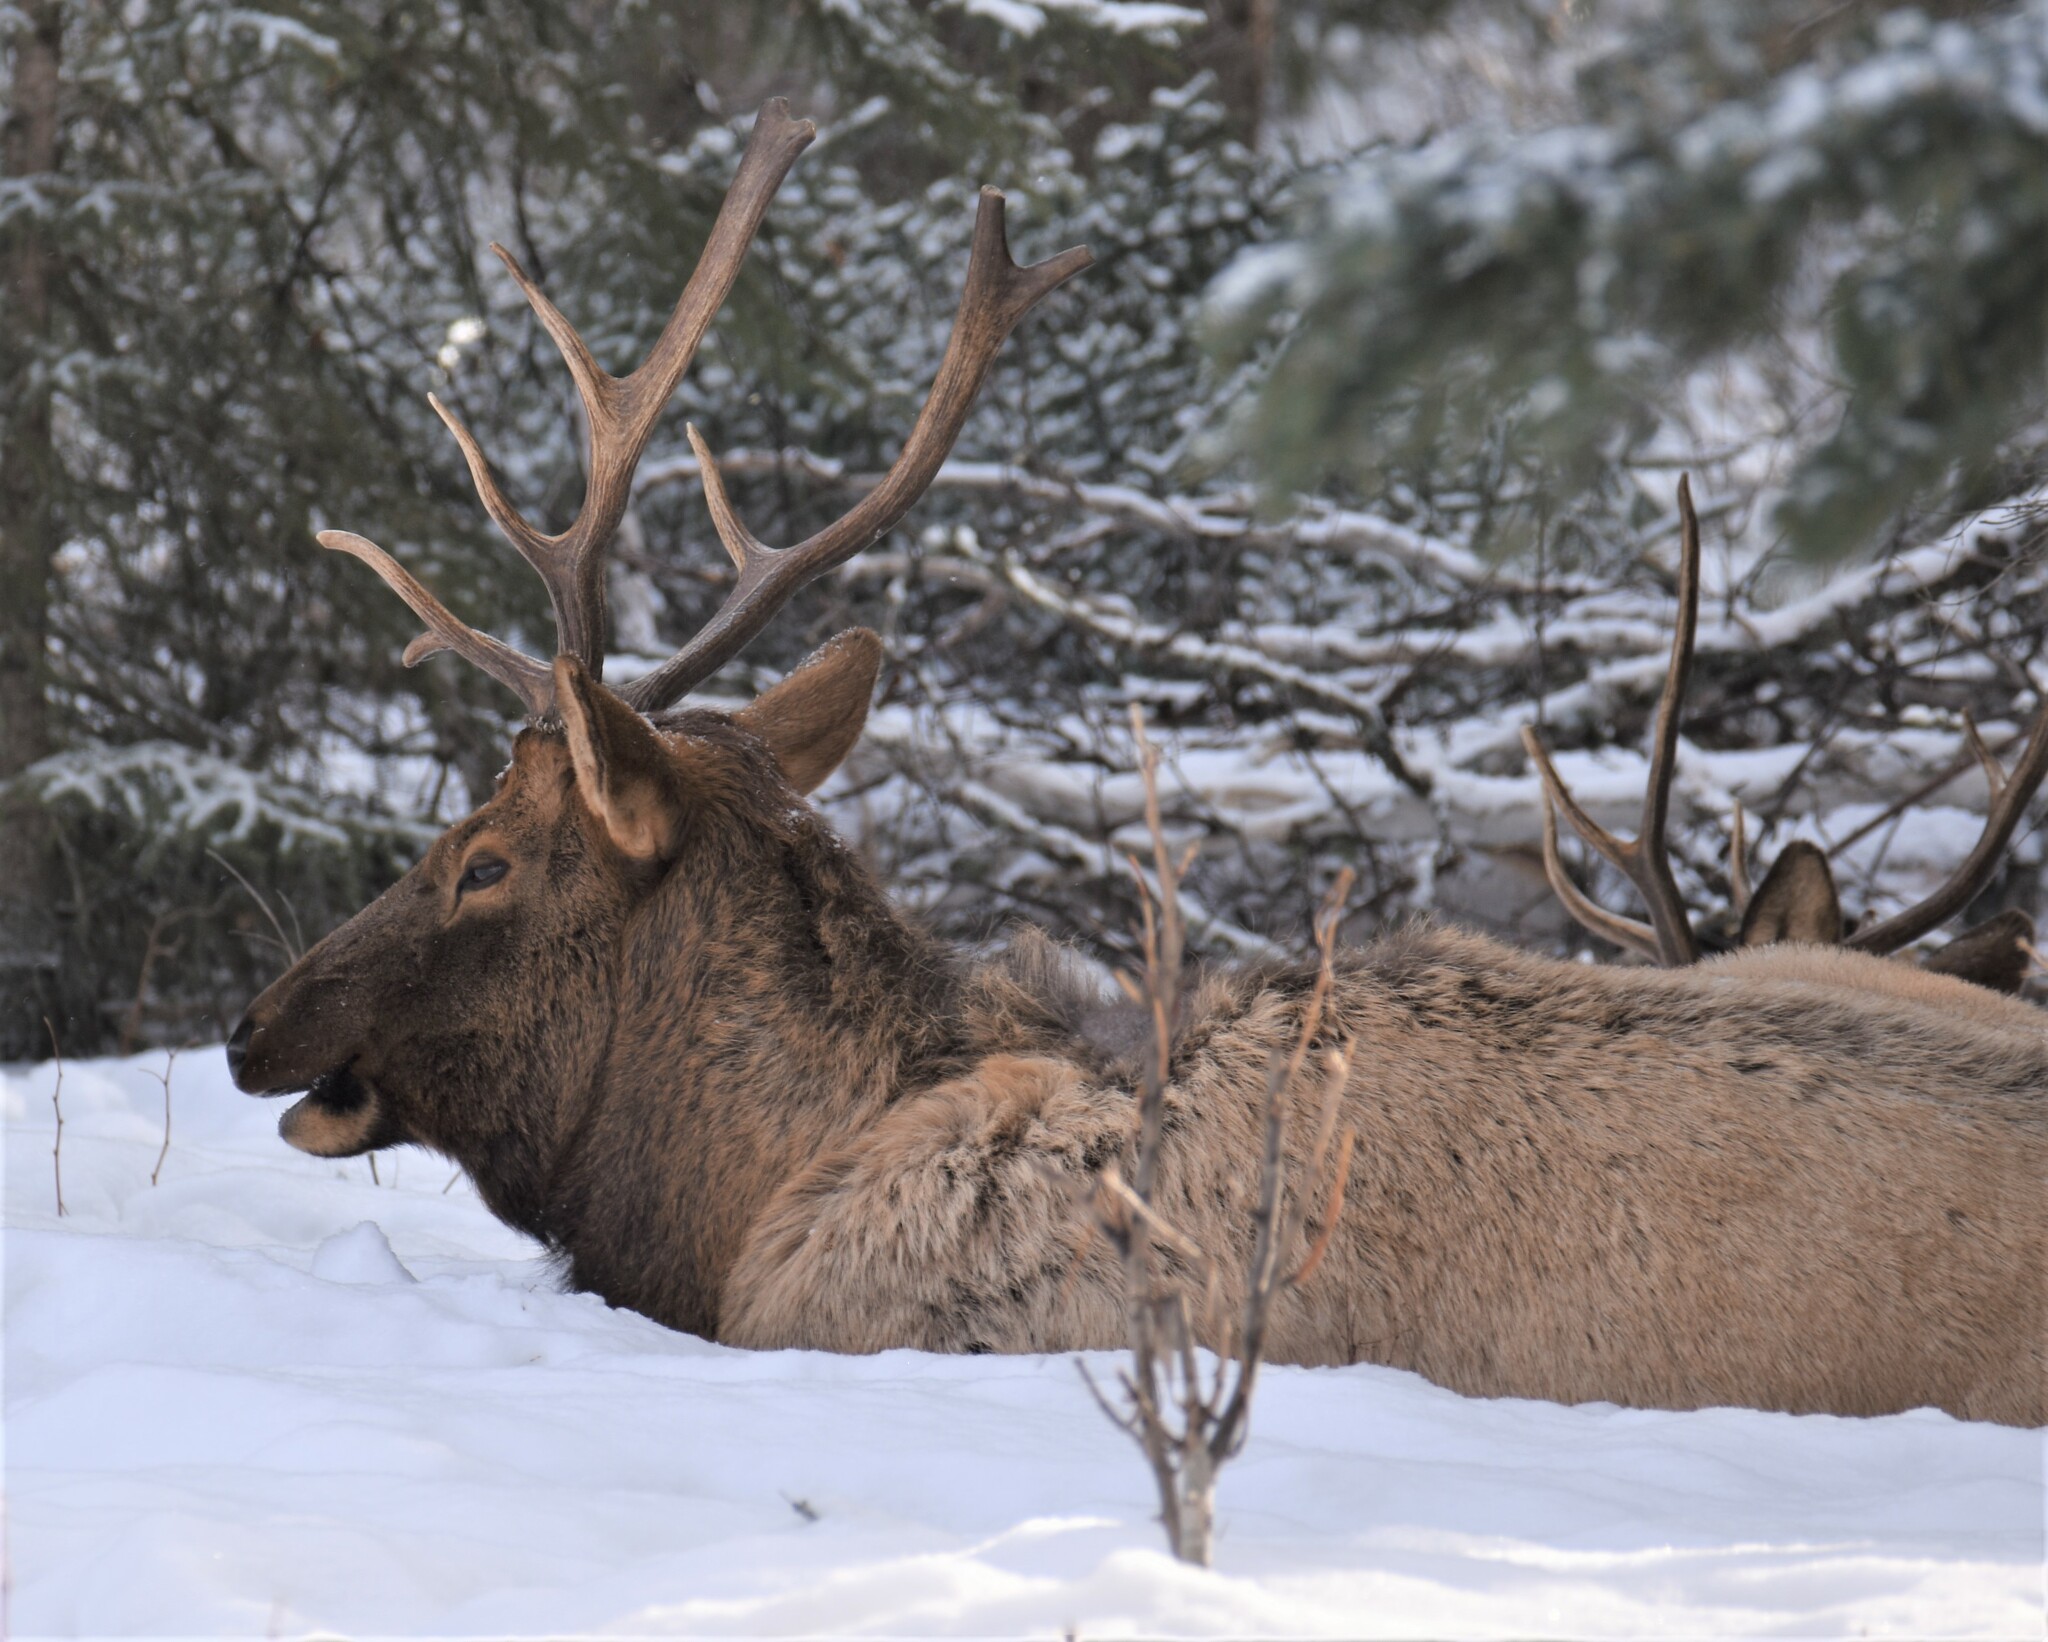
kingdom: Animalia
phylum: Chordata
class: Mammalia
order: Artiodactyla
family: Cervidae
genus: Cervus
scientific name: Cervus elaphus
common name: Red deer
